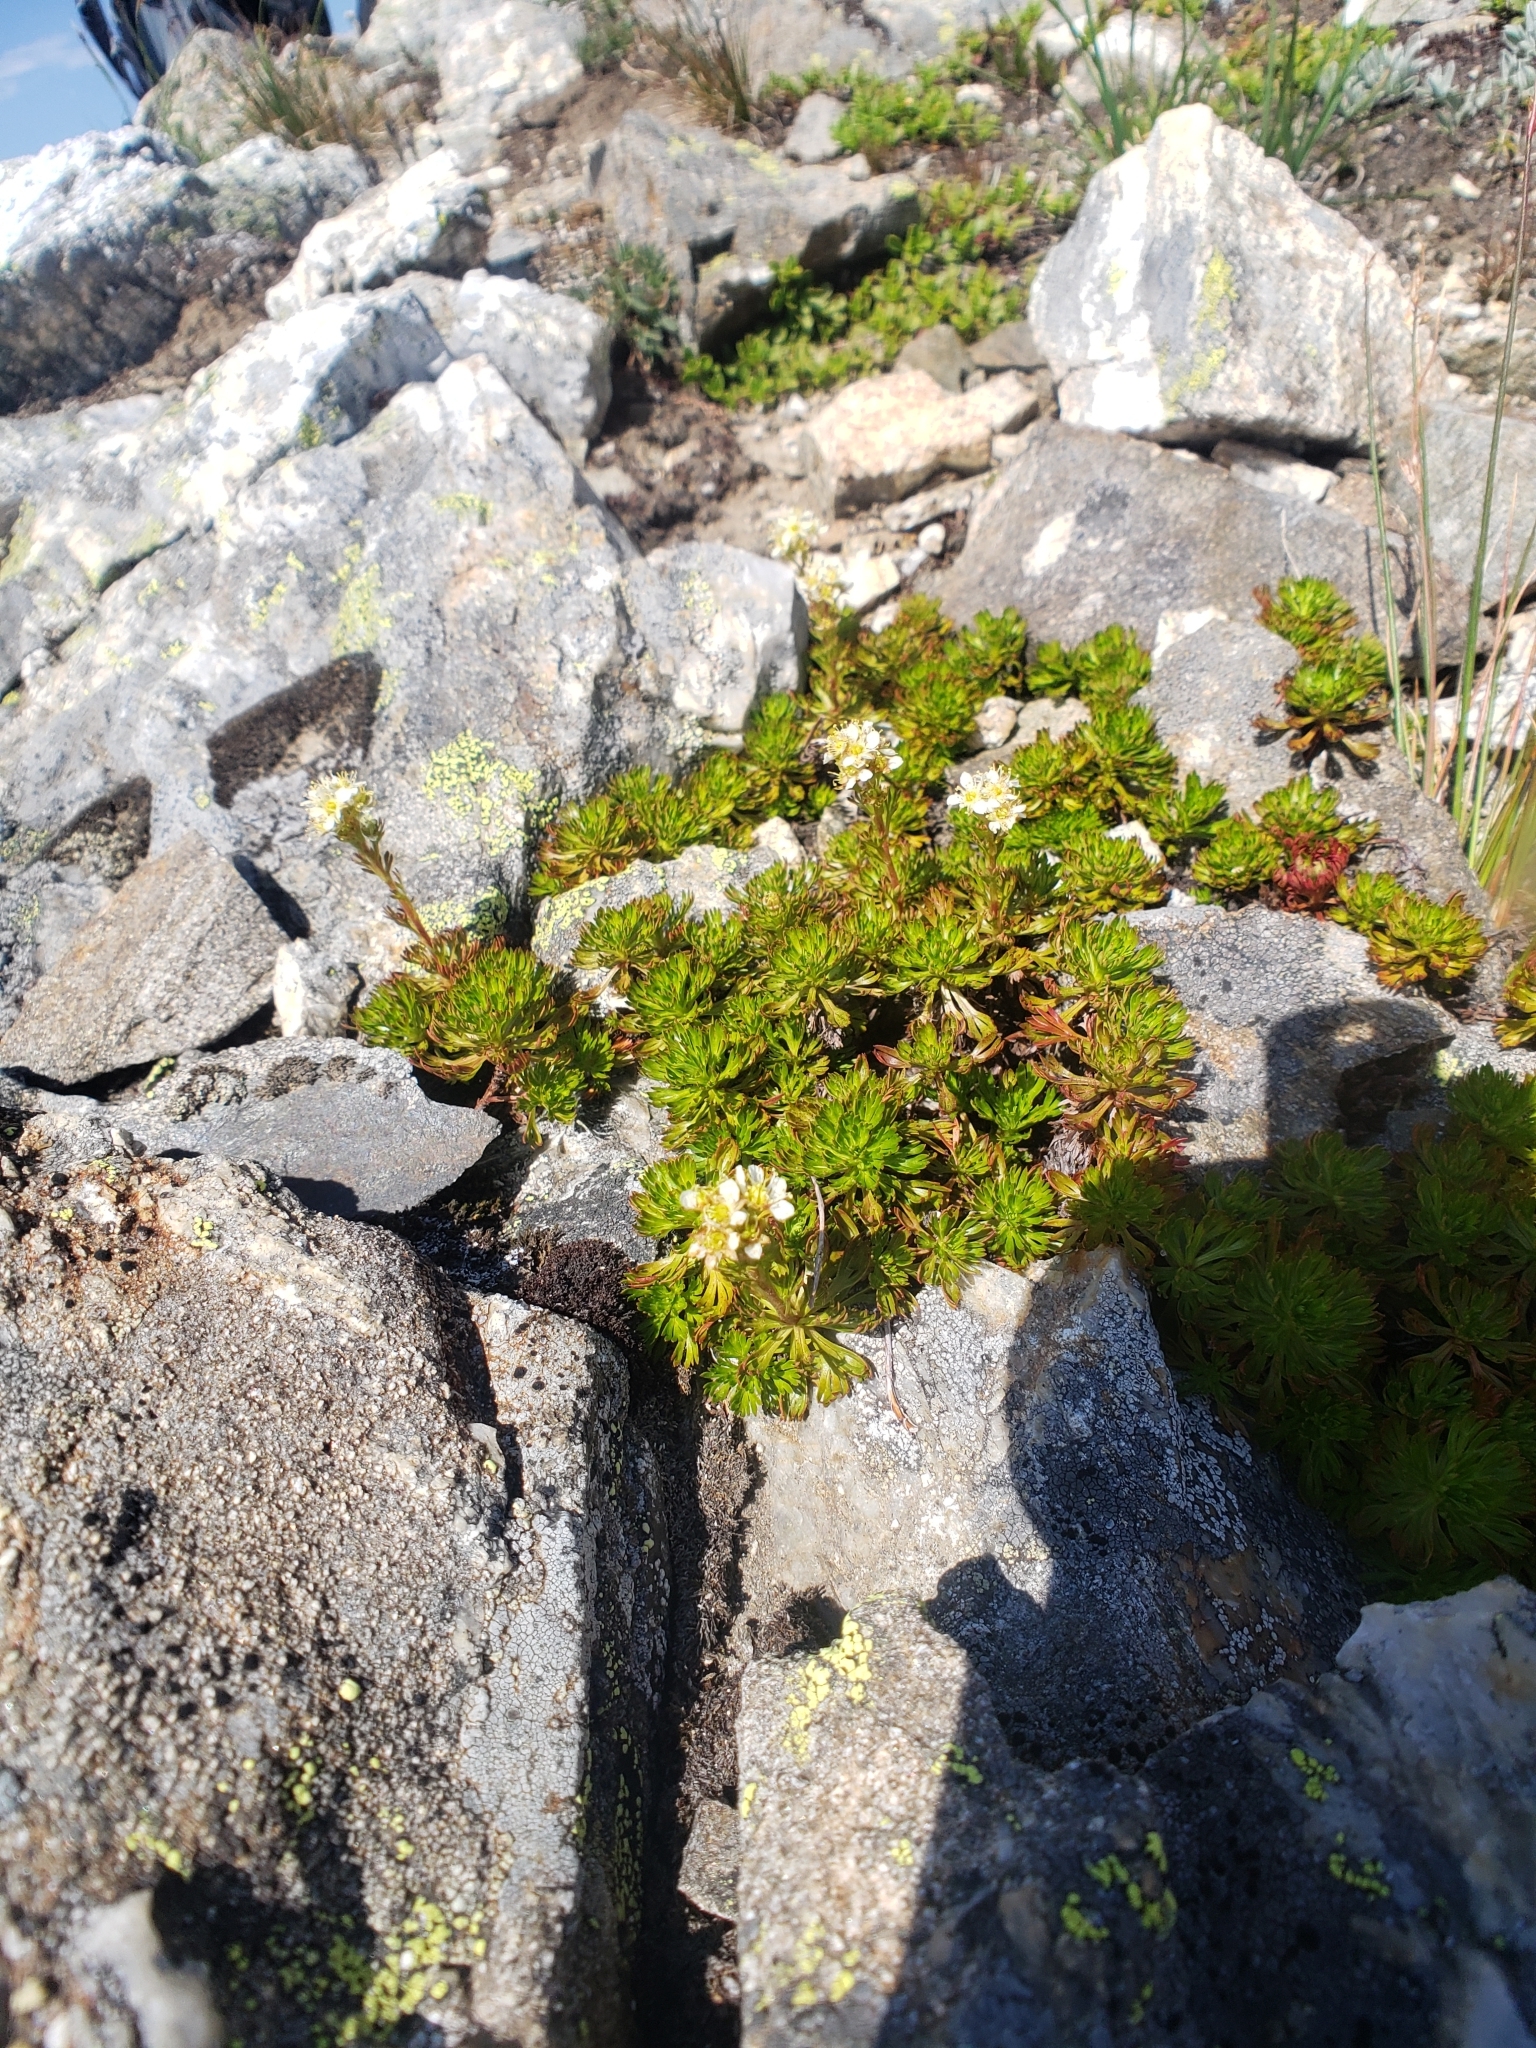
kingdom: Plantae
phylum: Tracheophyta
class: Magnoliopsida
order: Rosales
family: Rosaceae
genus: Luetkea
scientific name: Luetkea pectinata
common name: Partridgefoot
